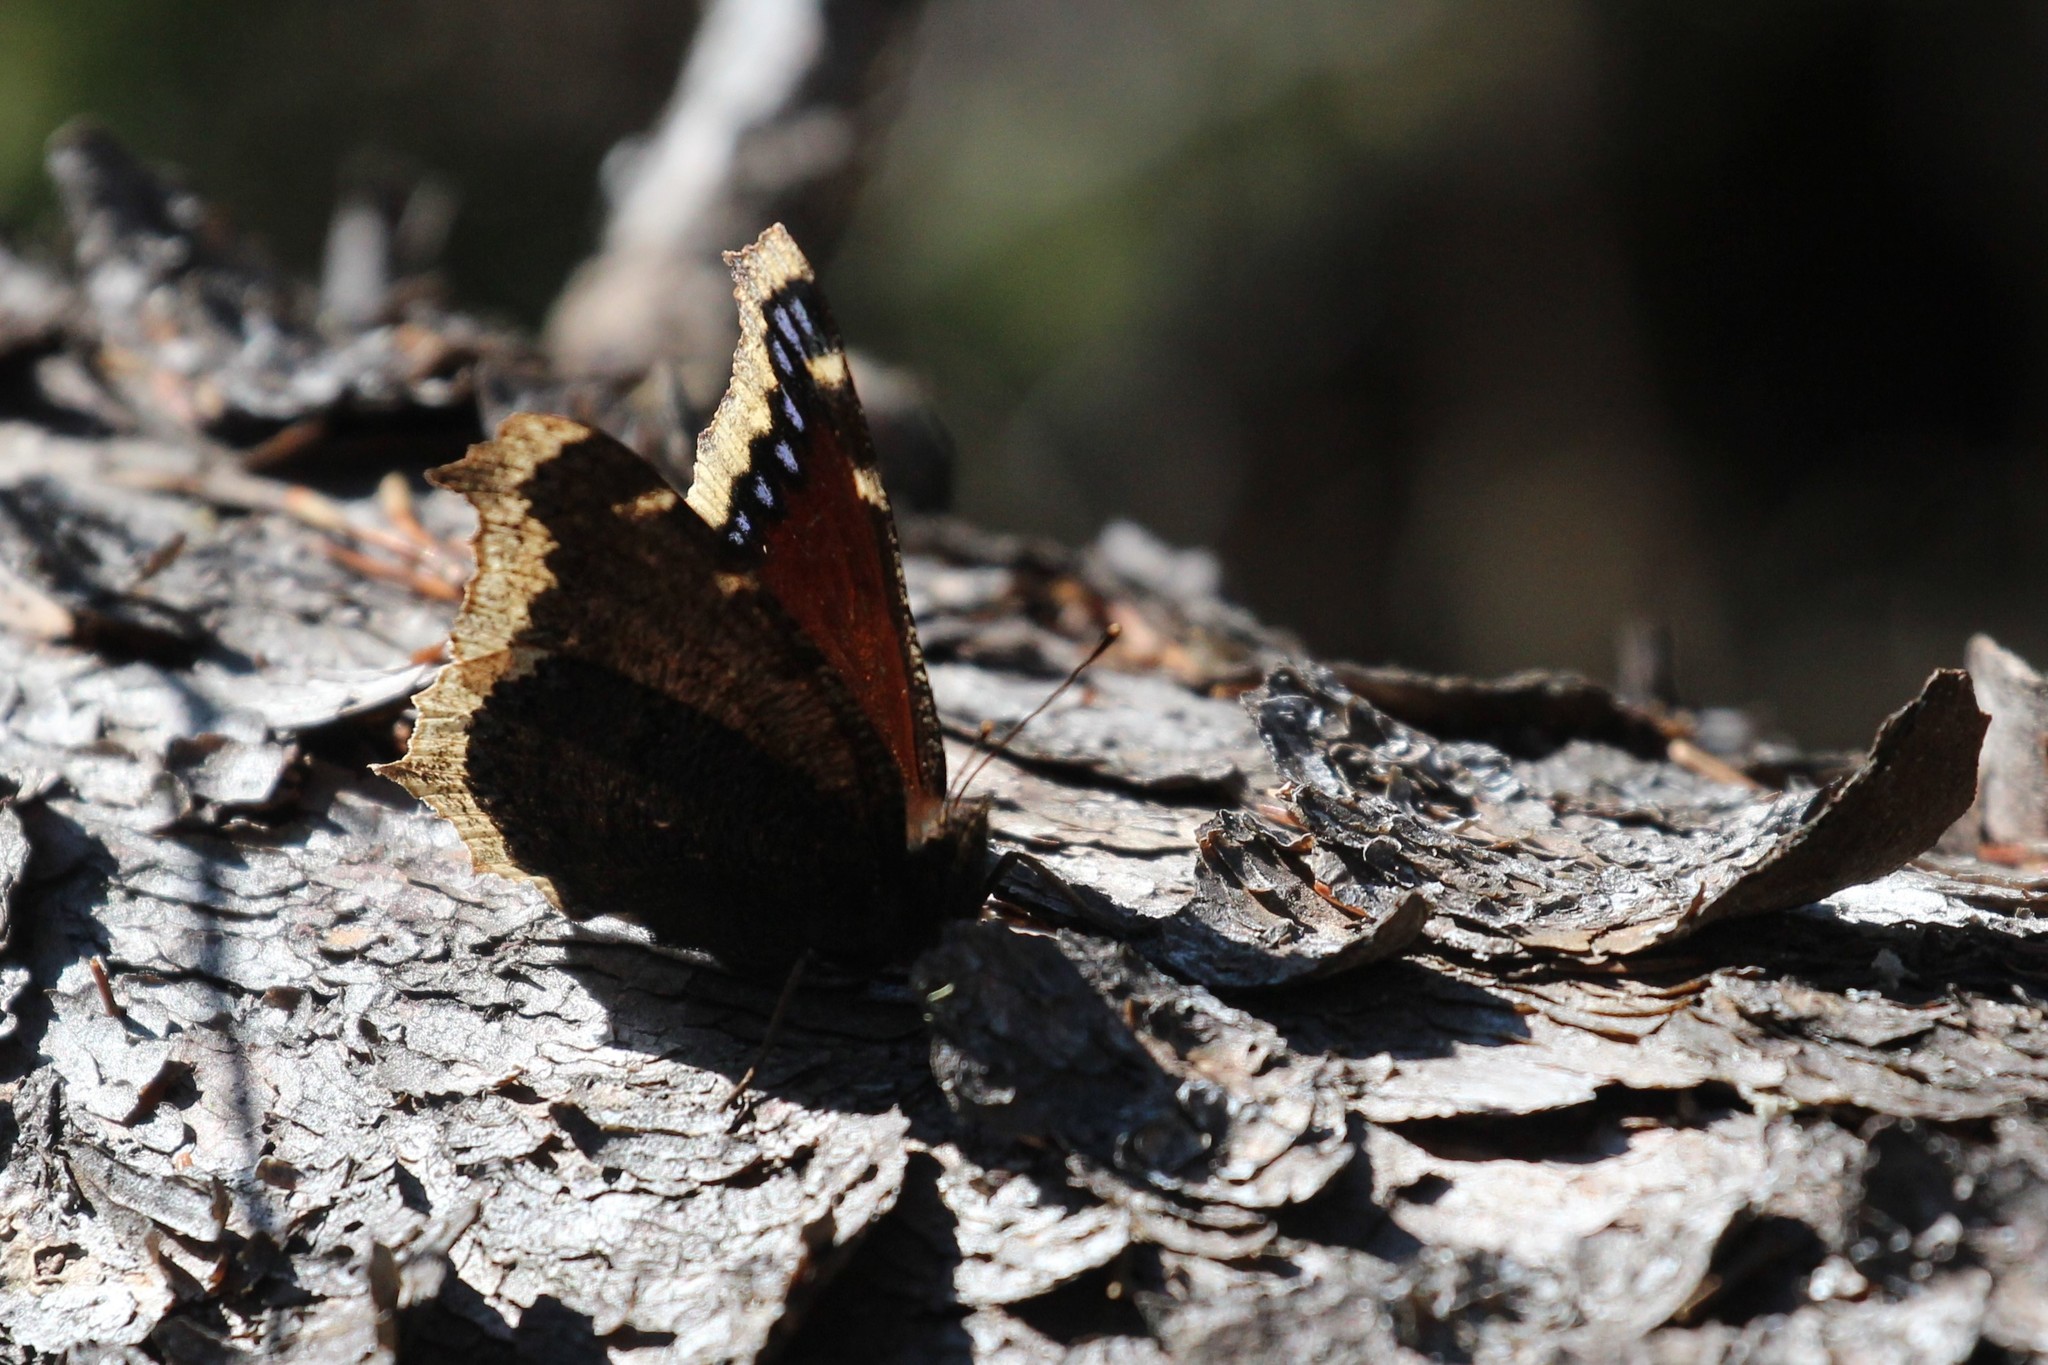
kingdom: Animalia
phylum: Arthropoda
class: Insecta
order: Lepidoptera
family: Nymphalidae
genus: Nymphalis
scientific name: Nymphalis antiopa
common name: Camberwell beauty
